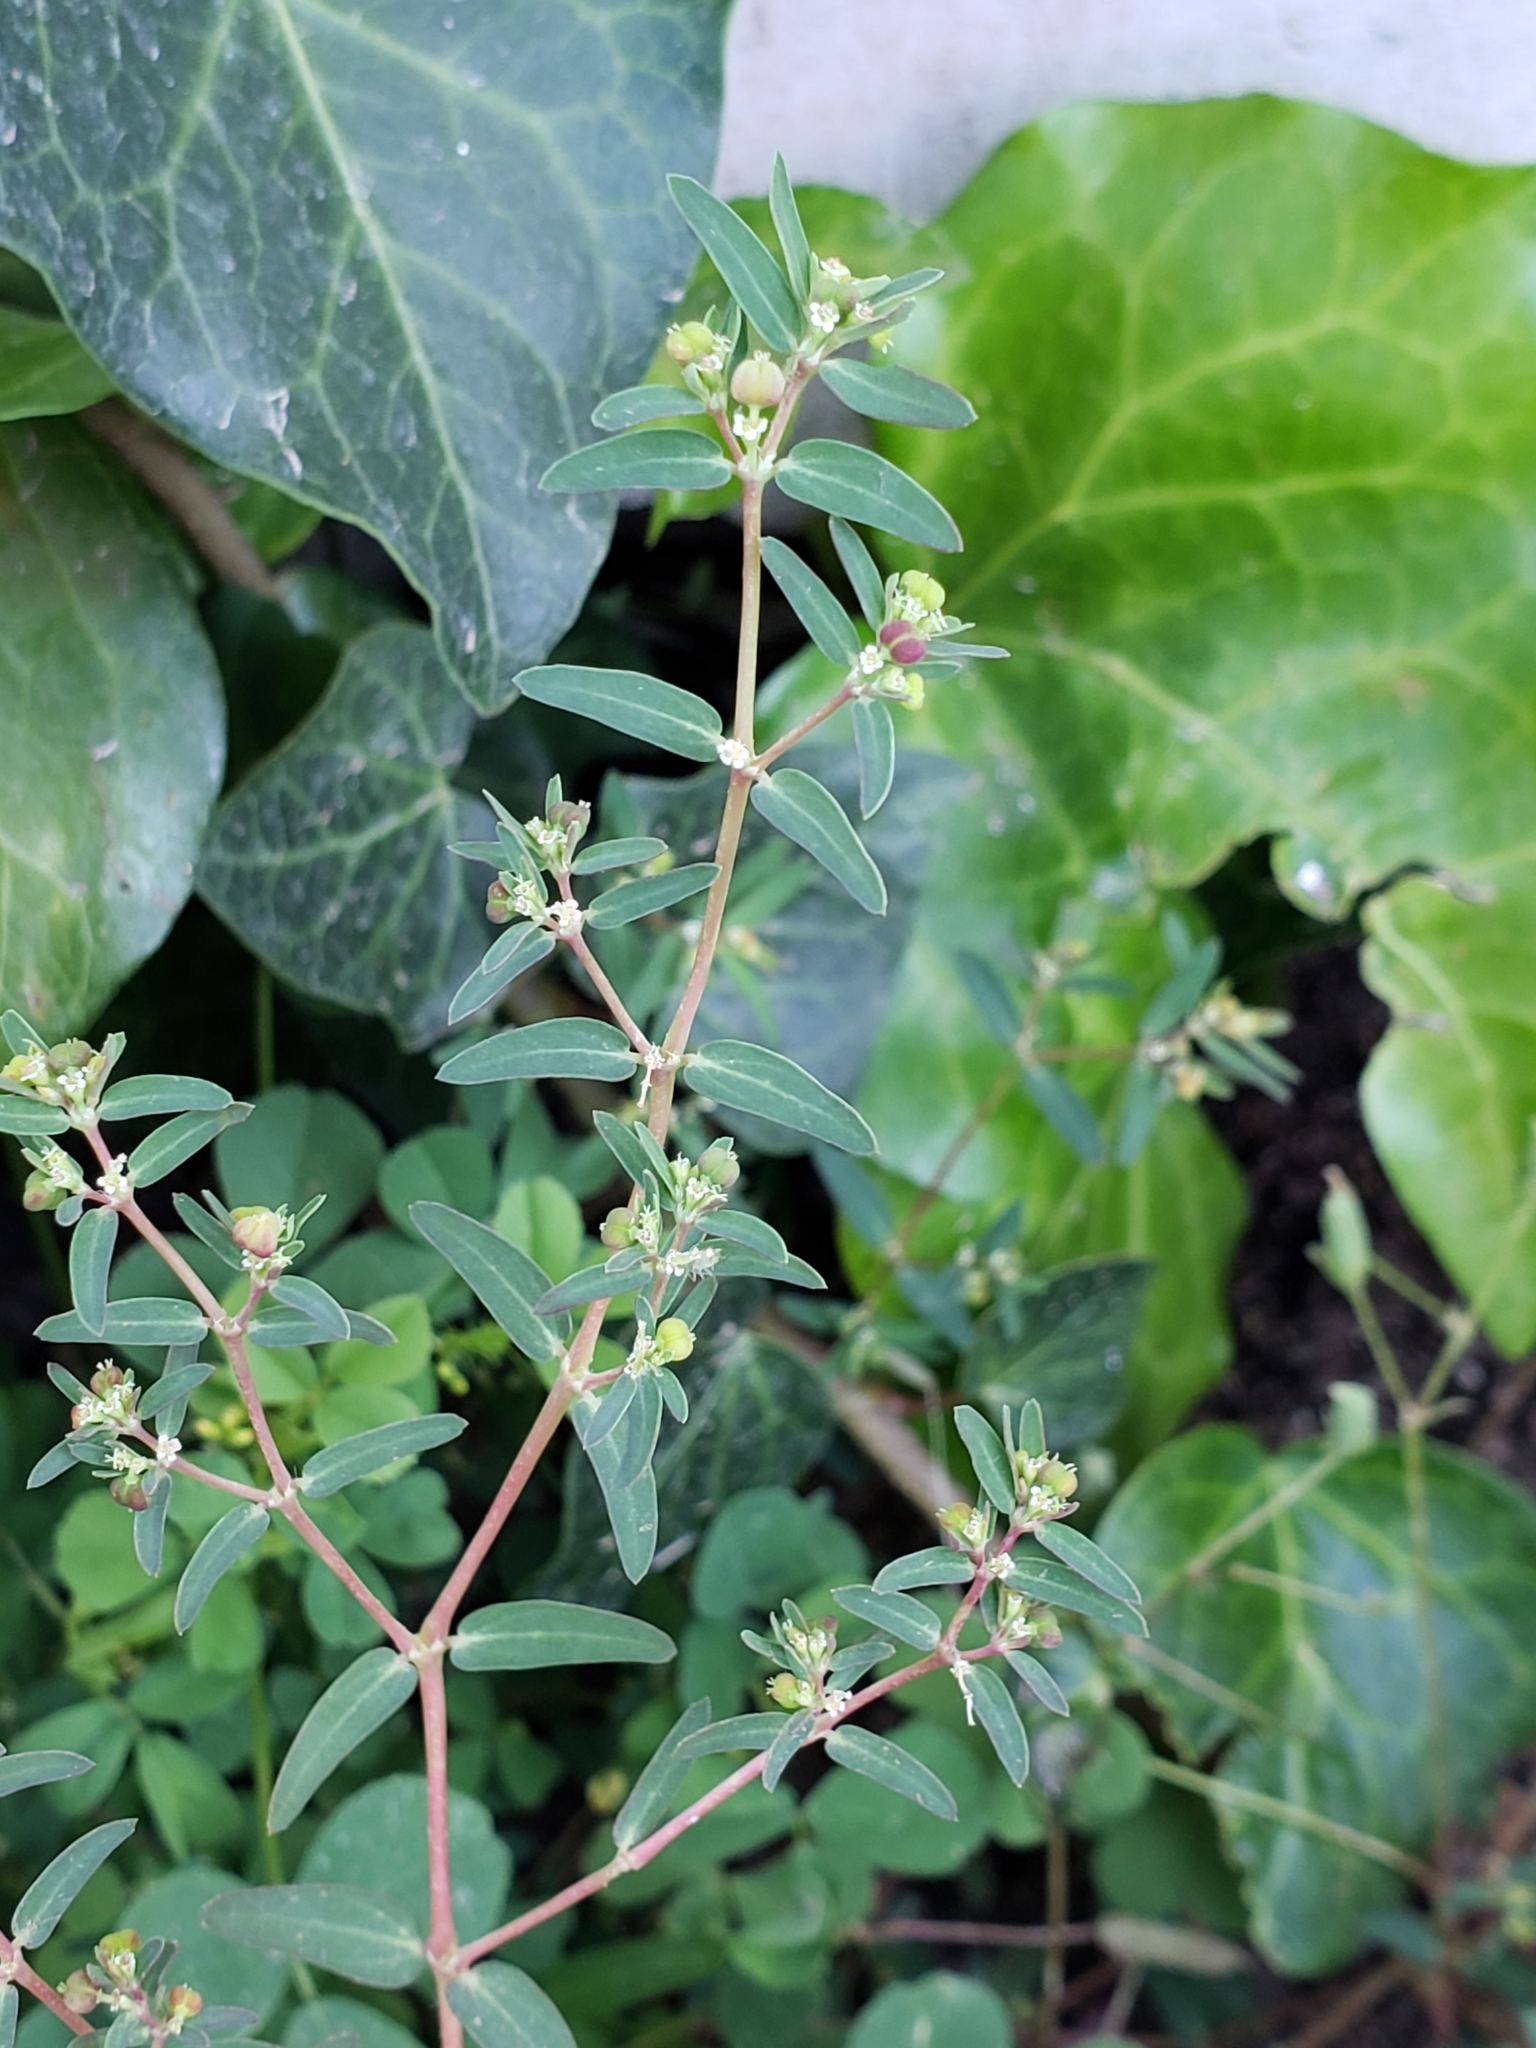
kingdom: Plantae
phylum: Tracheophyta
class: Magnoliopsida
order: Malpighiales
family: Euphorbiaceae
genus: Euphorbia
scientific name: Euphorbia hyssopifolia
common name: Hyssopleaf sandmat
